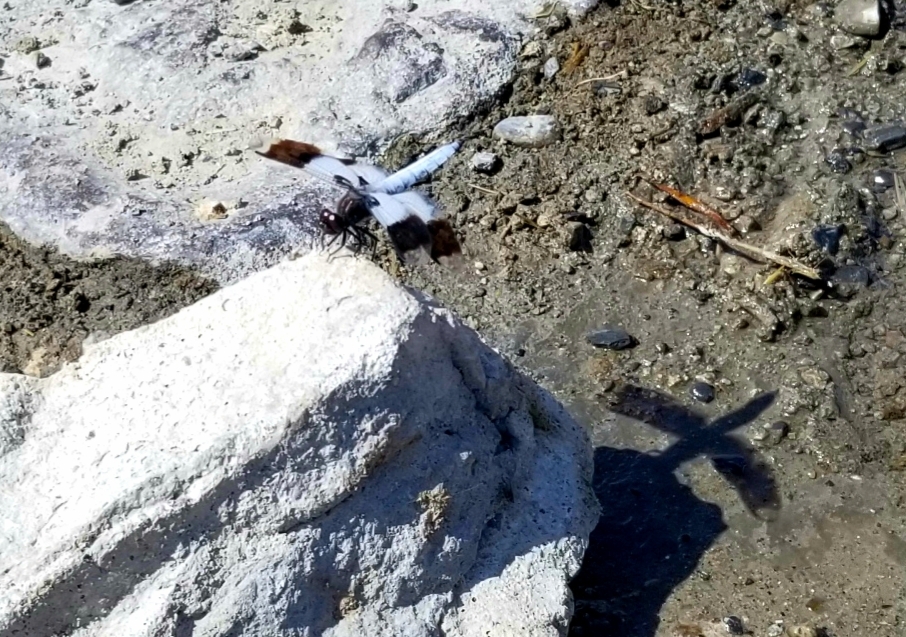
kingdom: Animalia
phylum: Arthropoda
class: Insecta
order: Odonata
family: Libellulidae
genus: Plathemis
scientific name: Plathemis subornata
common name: Desert whitetail
